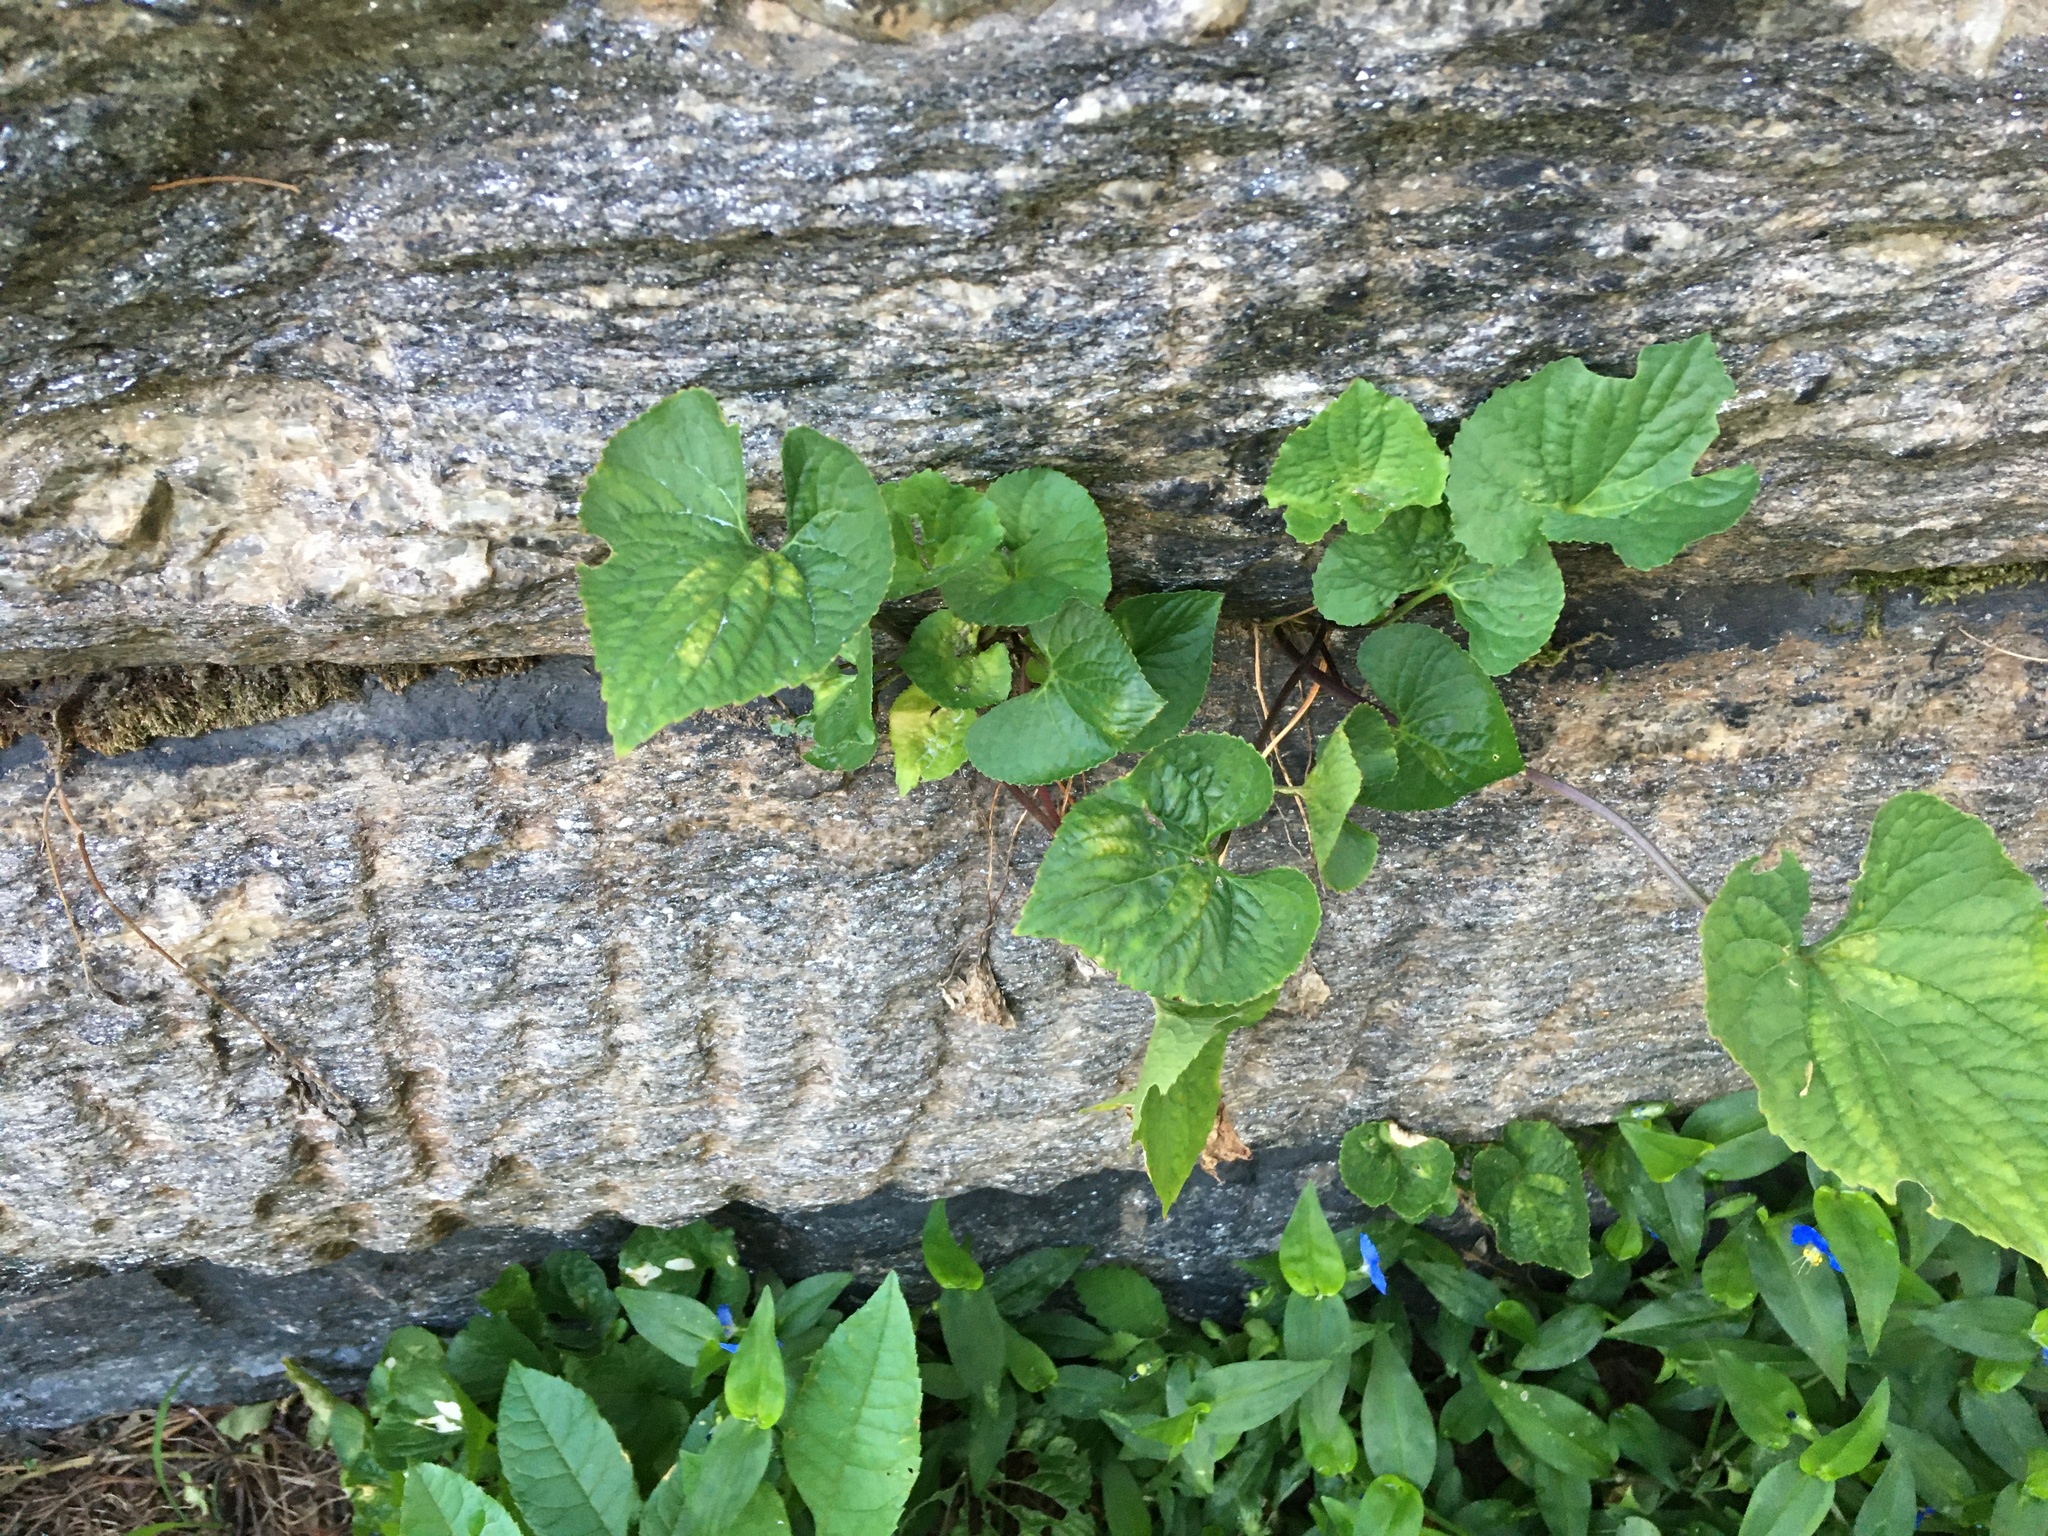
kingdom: Plantae
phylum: Tracheophyta
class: Magnoliopsida
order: Malpighiales
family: Violaceae
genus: Viola
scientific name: Viola sororia
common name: Dooryard violet
